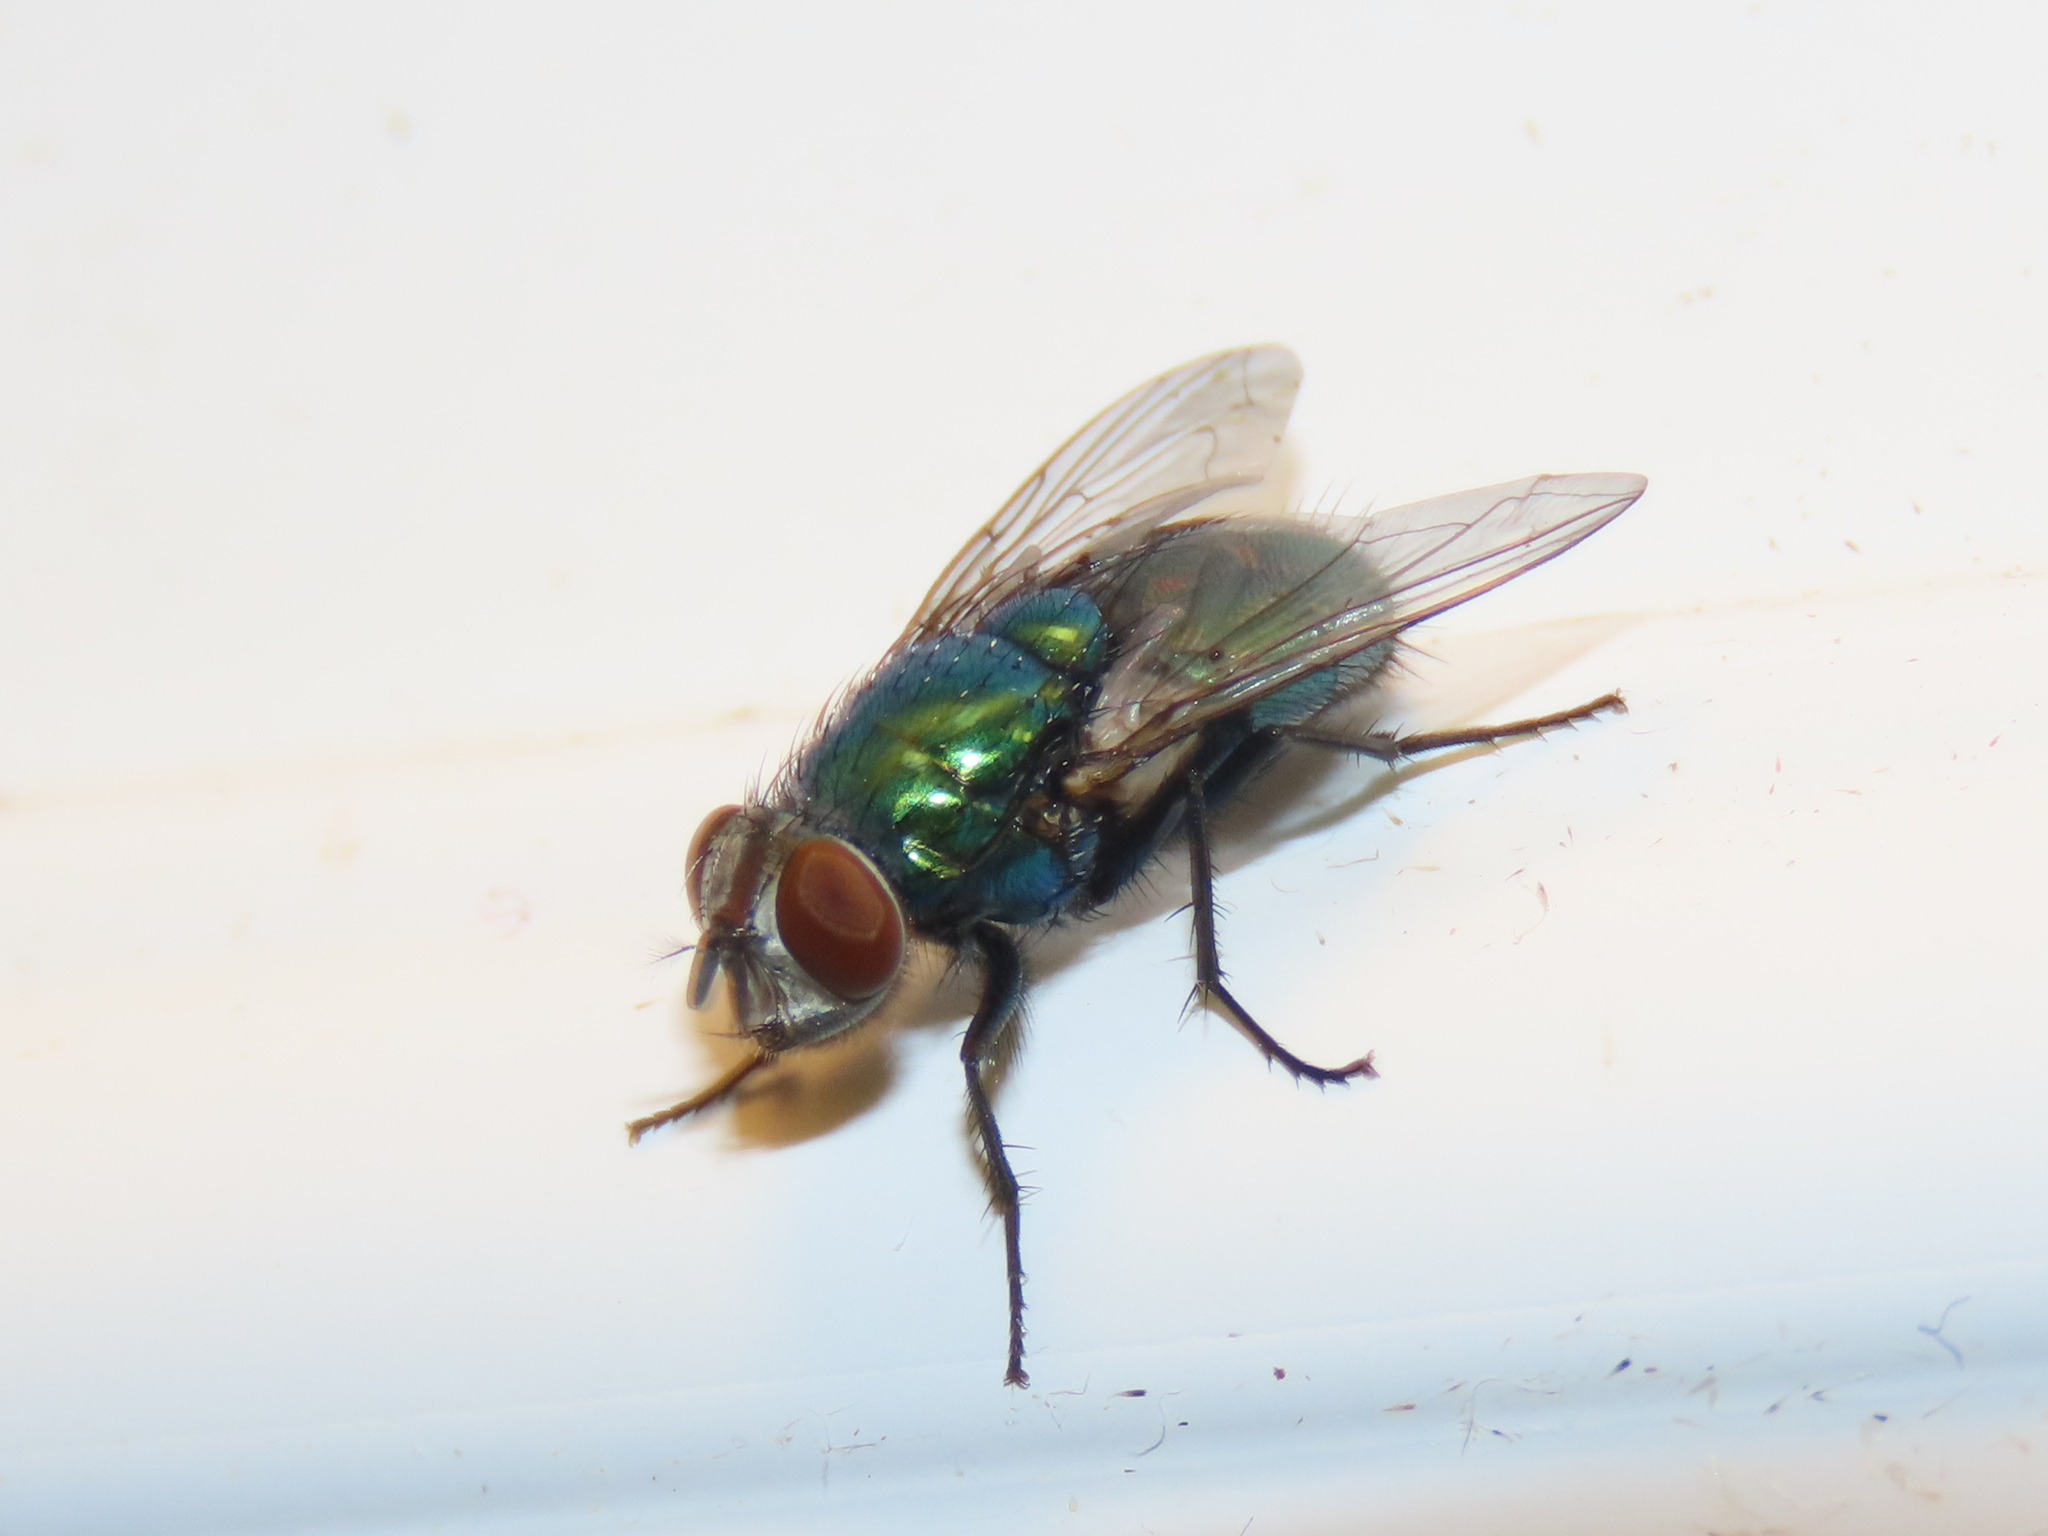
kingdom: Animalia
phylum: Arthropoda
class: Insecta
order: Diptera
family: Calliphoridae
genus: Lucilia
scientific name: Lucilia sericata
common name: Blow fly
